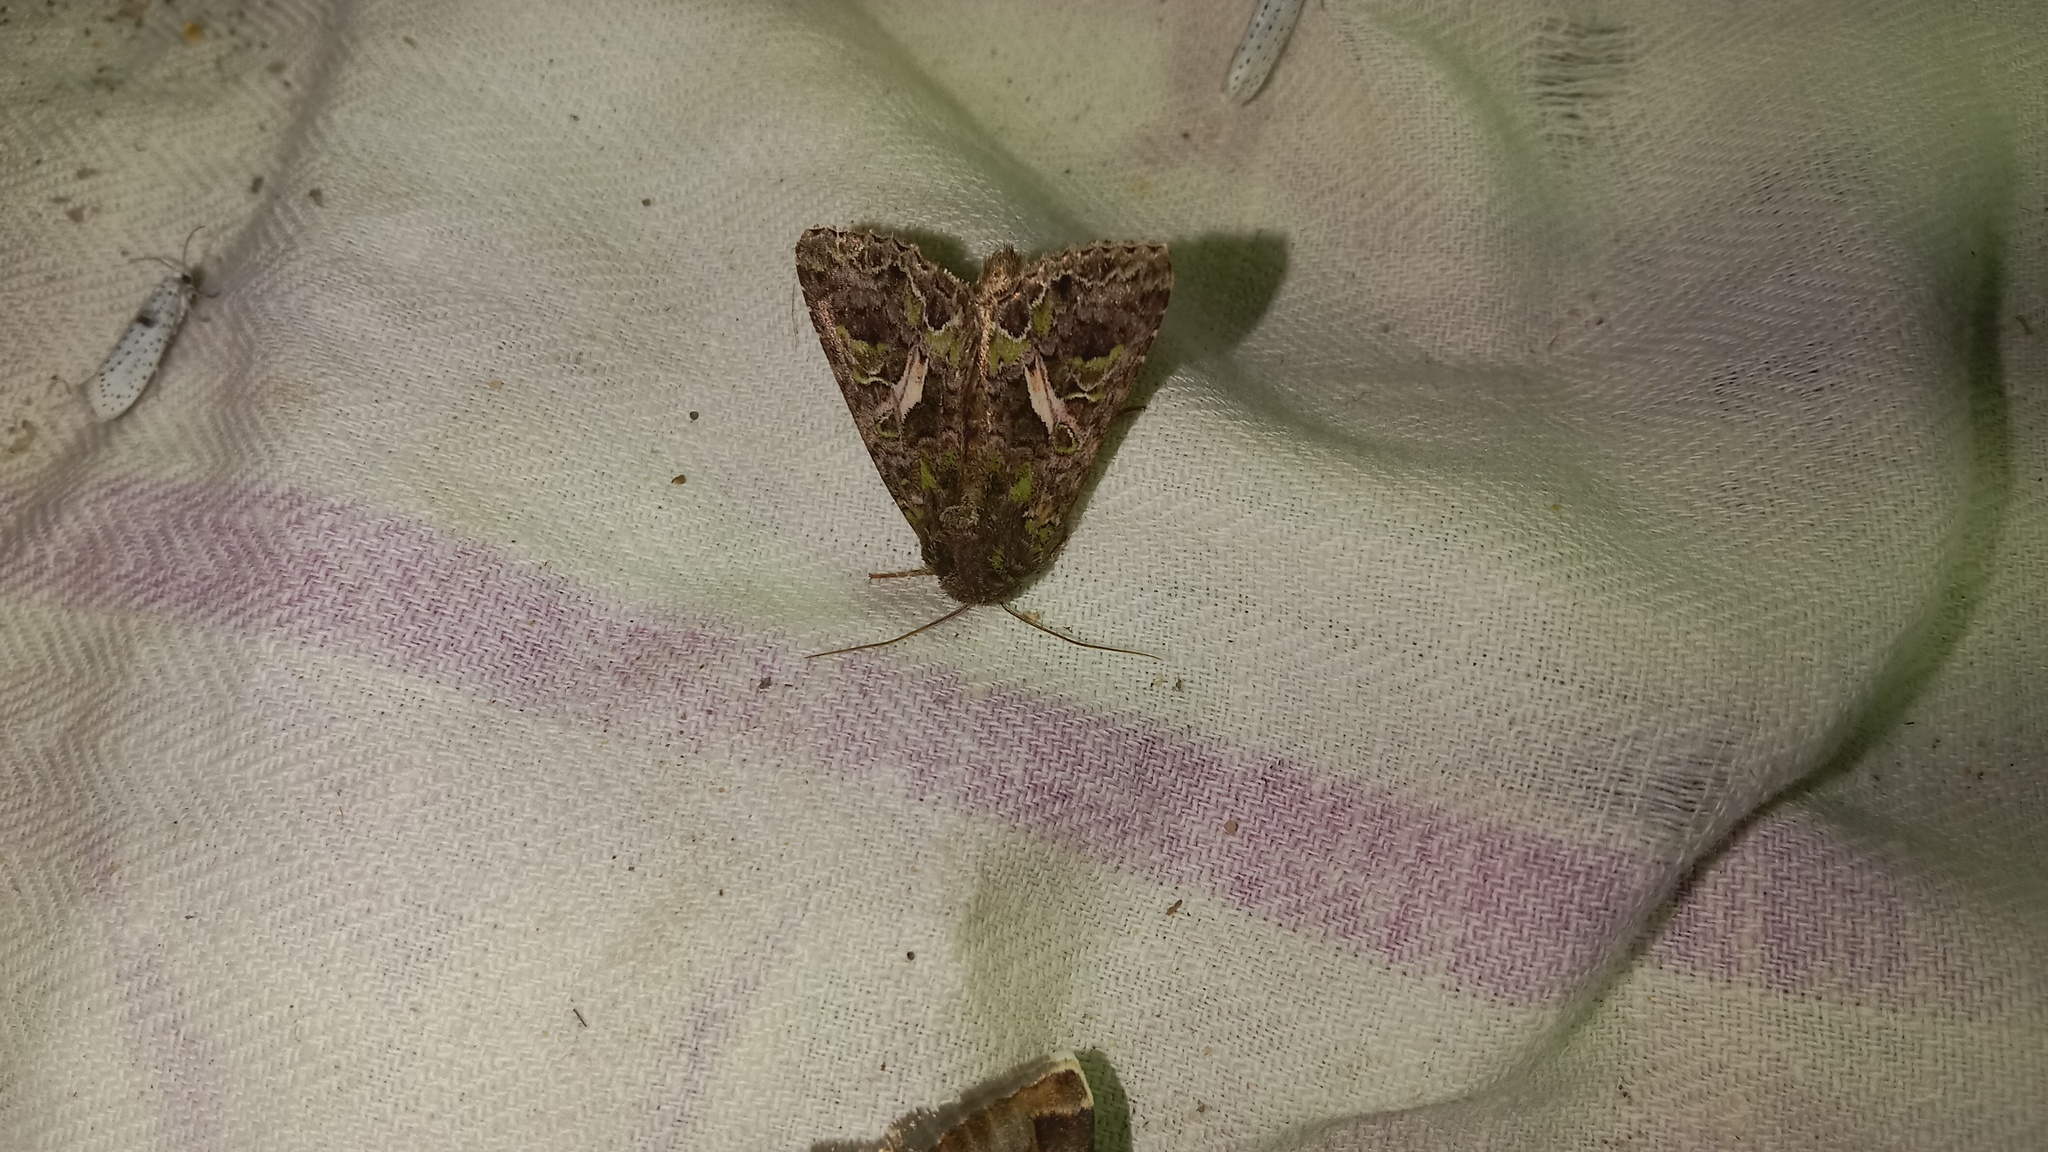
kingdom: Animalia
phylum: Arthropoda
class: Insecta
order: Lepidoptera
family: Noctuidae
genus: Trachea
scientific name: Trachea atriplicis
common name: Orache moth
